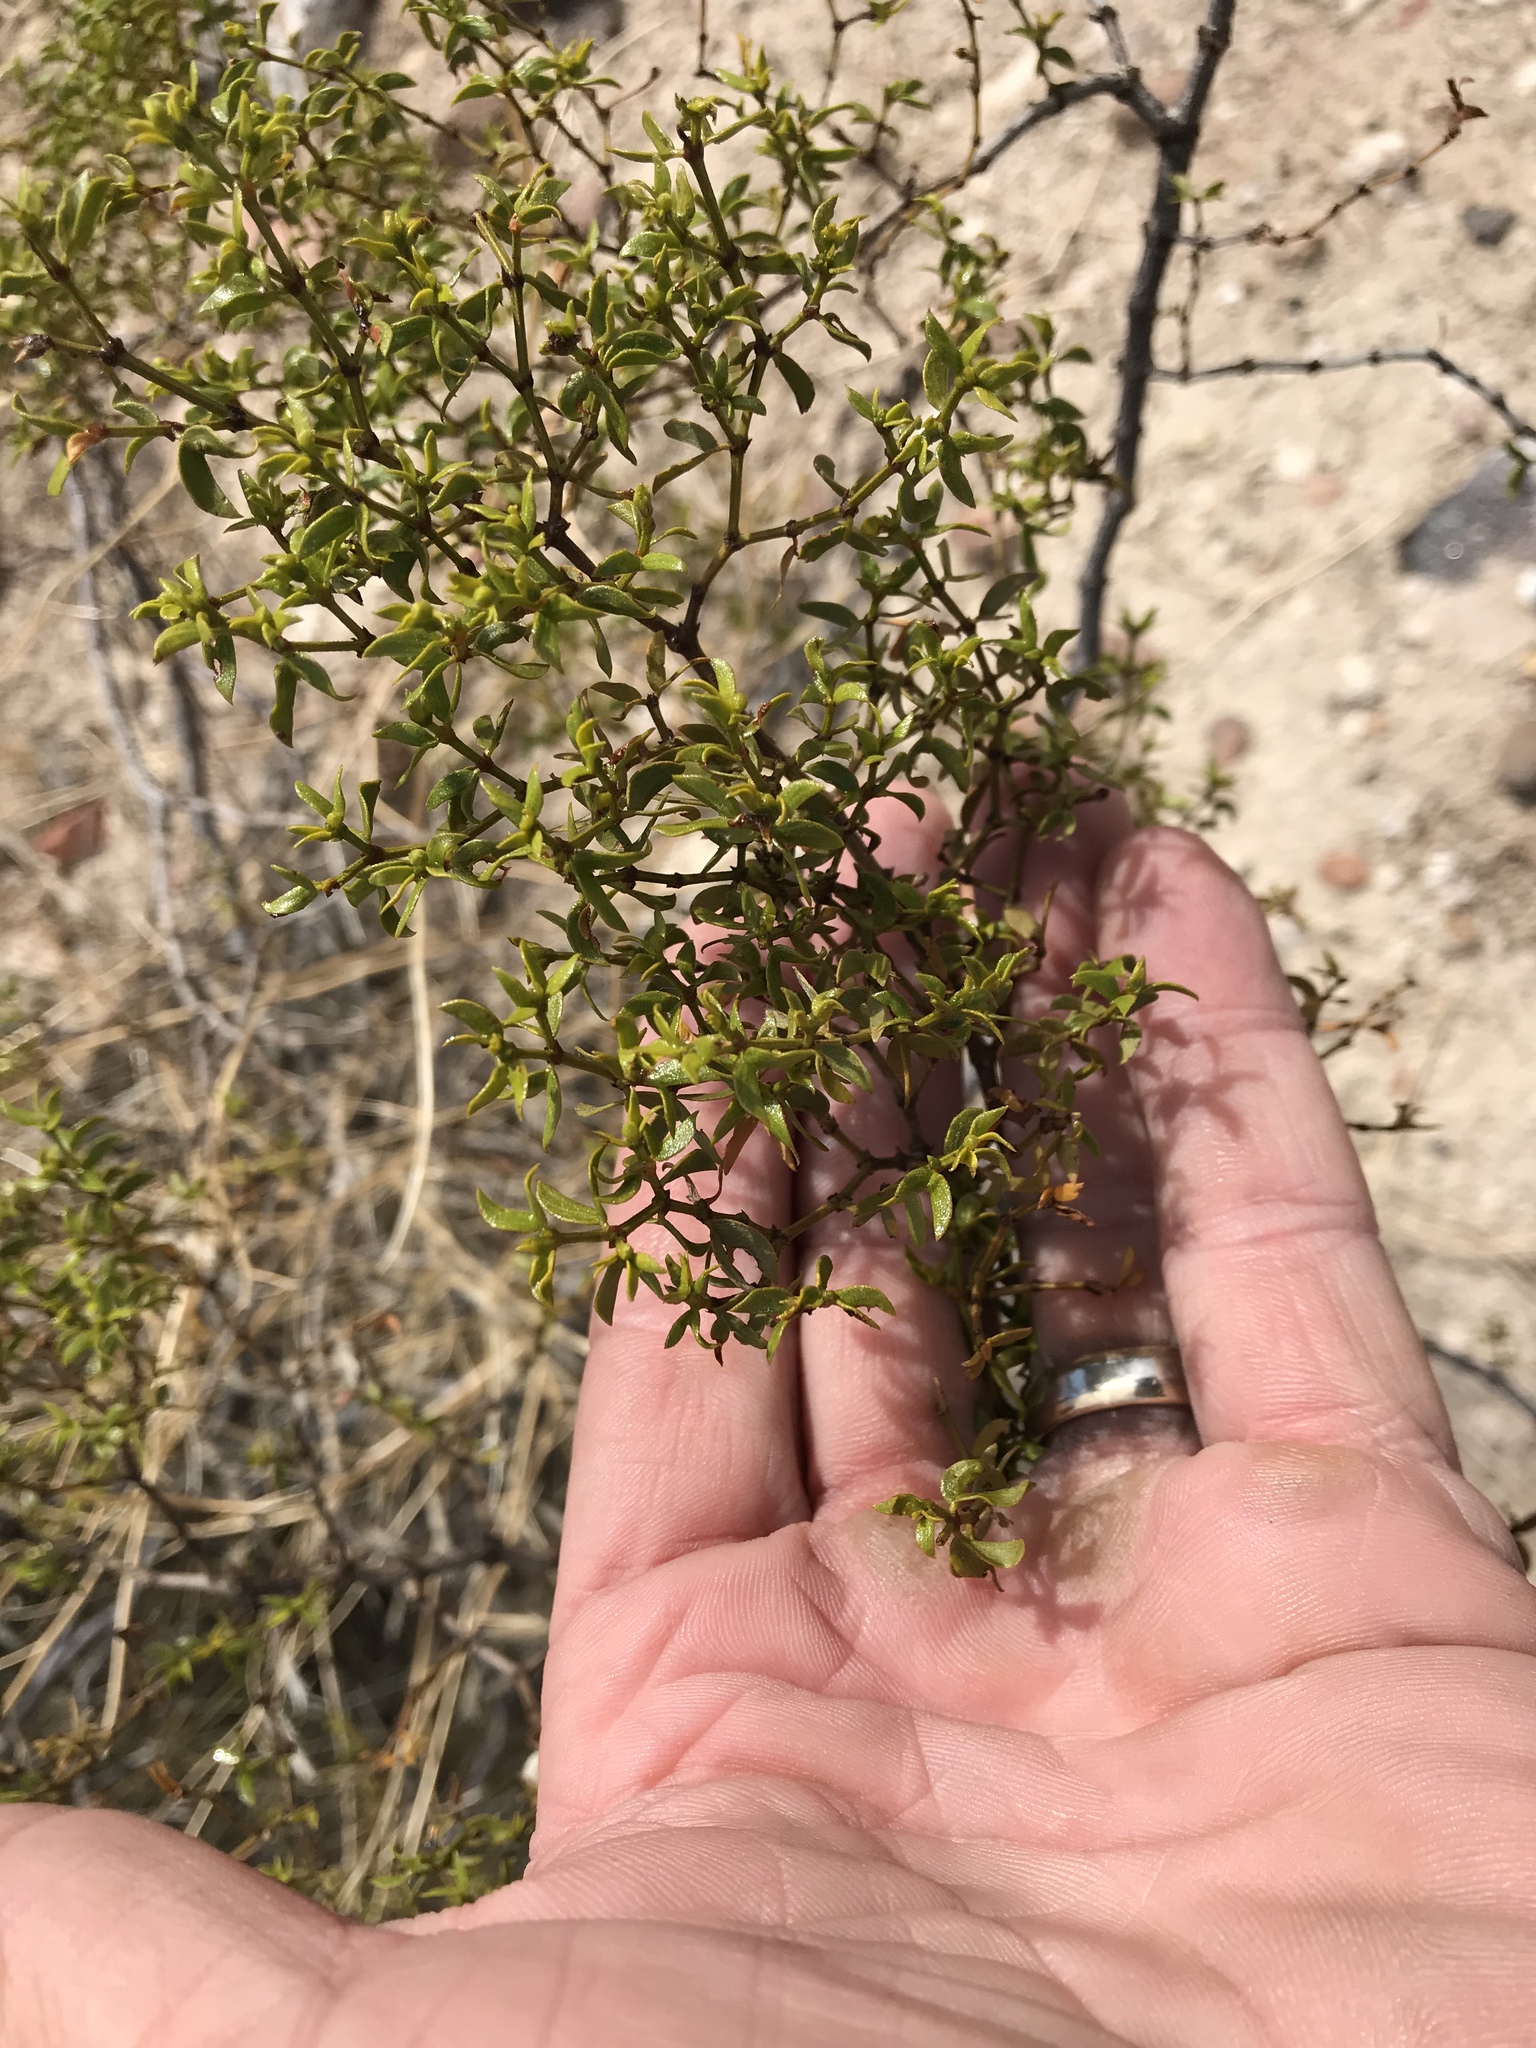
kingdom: Plantae
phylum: Tracheophyta
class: Magnoliopsida
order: Zygophyllales
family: Zygophyllaceae
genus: Larrea
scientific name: Larrea tridentata
